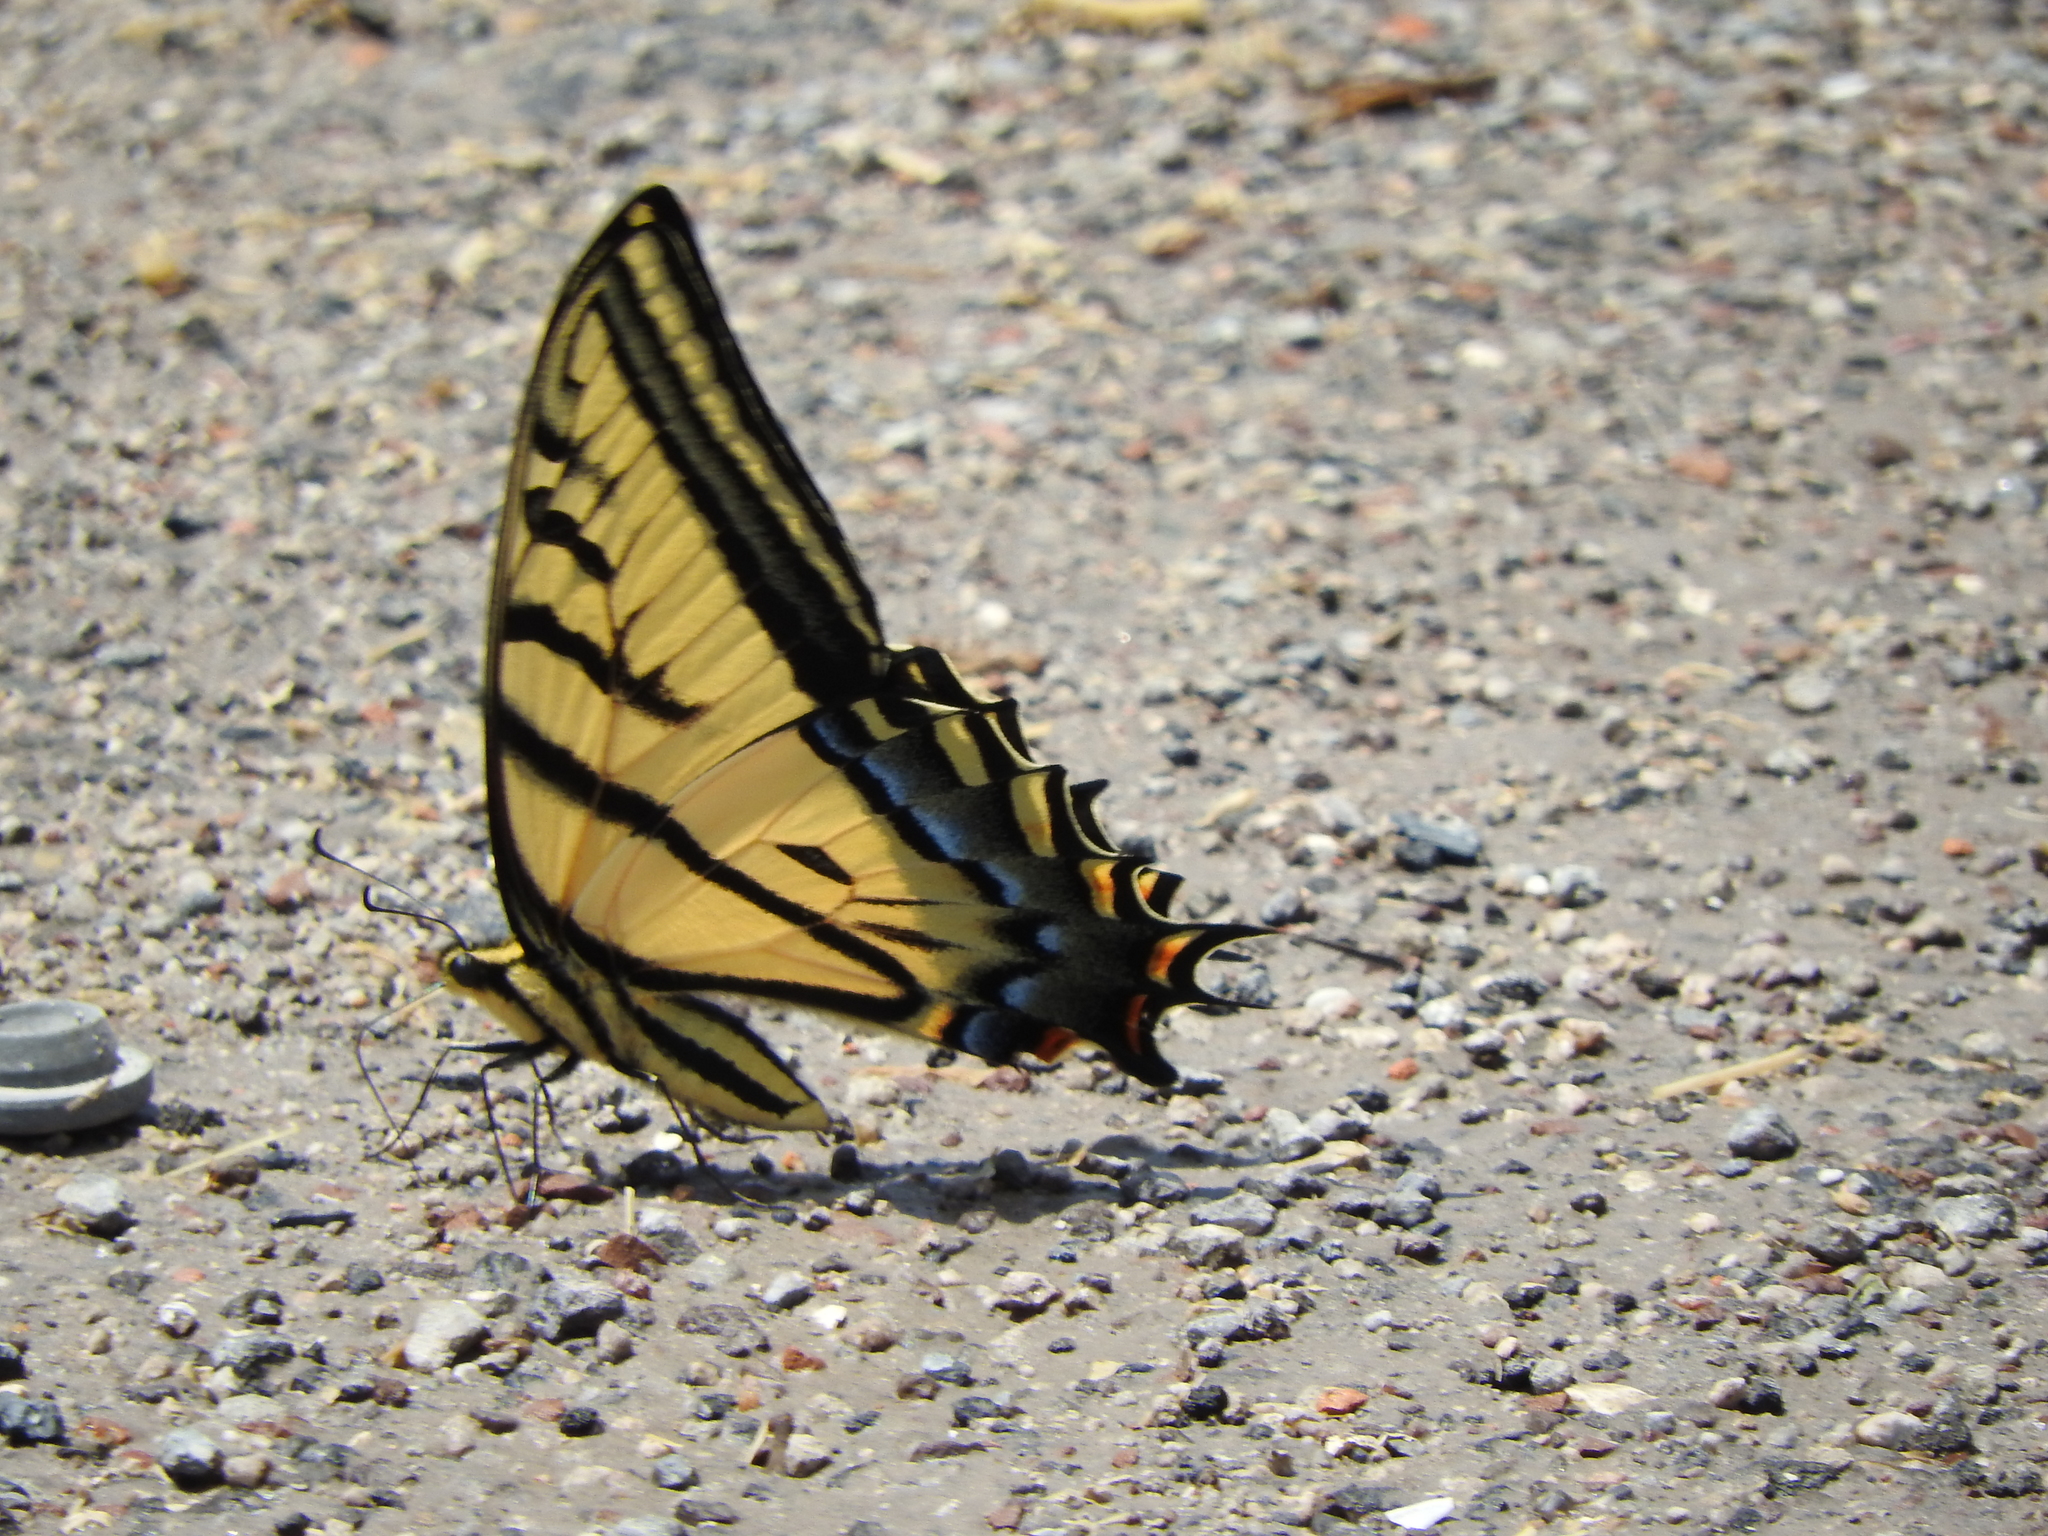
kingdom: Animalia
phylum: Arthropoda
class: Insecta
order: Lepidoptera
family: Papilionidae
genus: Papilio
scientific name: Papilio multicaudata
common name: Two-tailed tiger swallowtail
